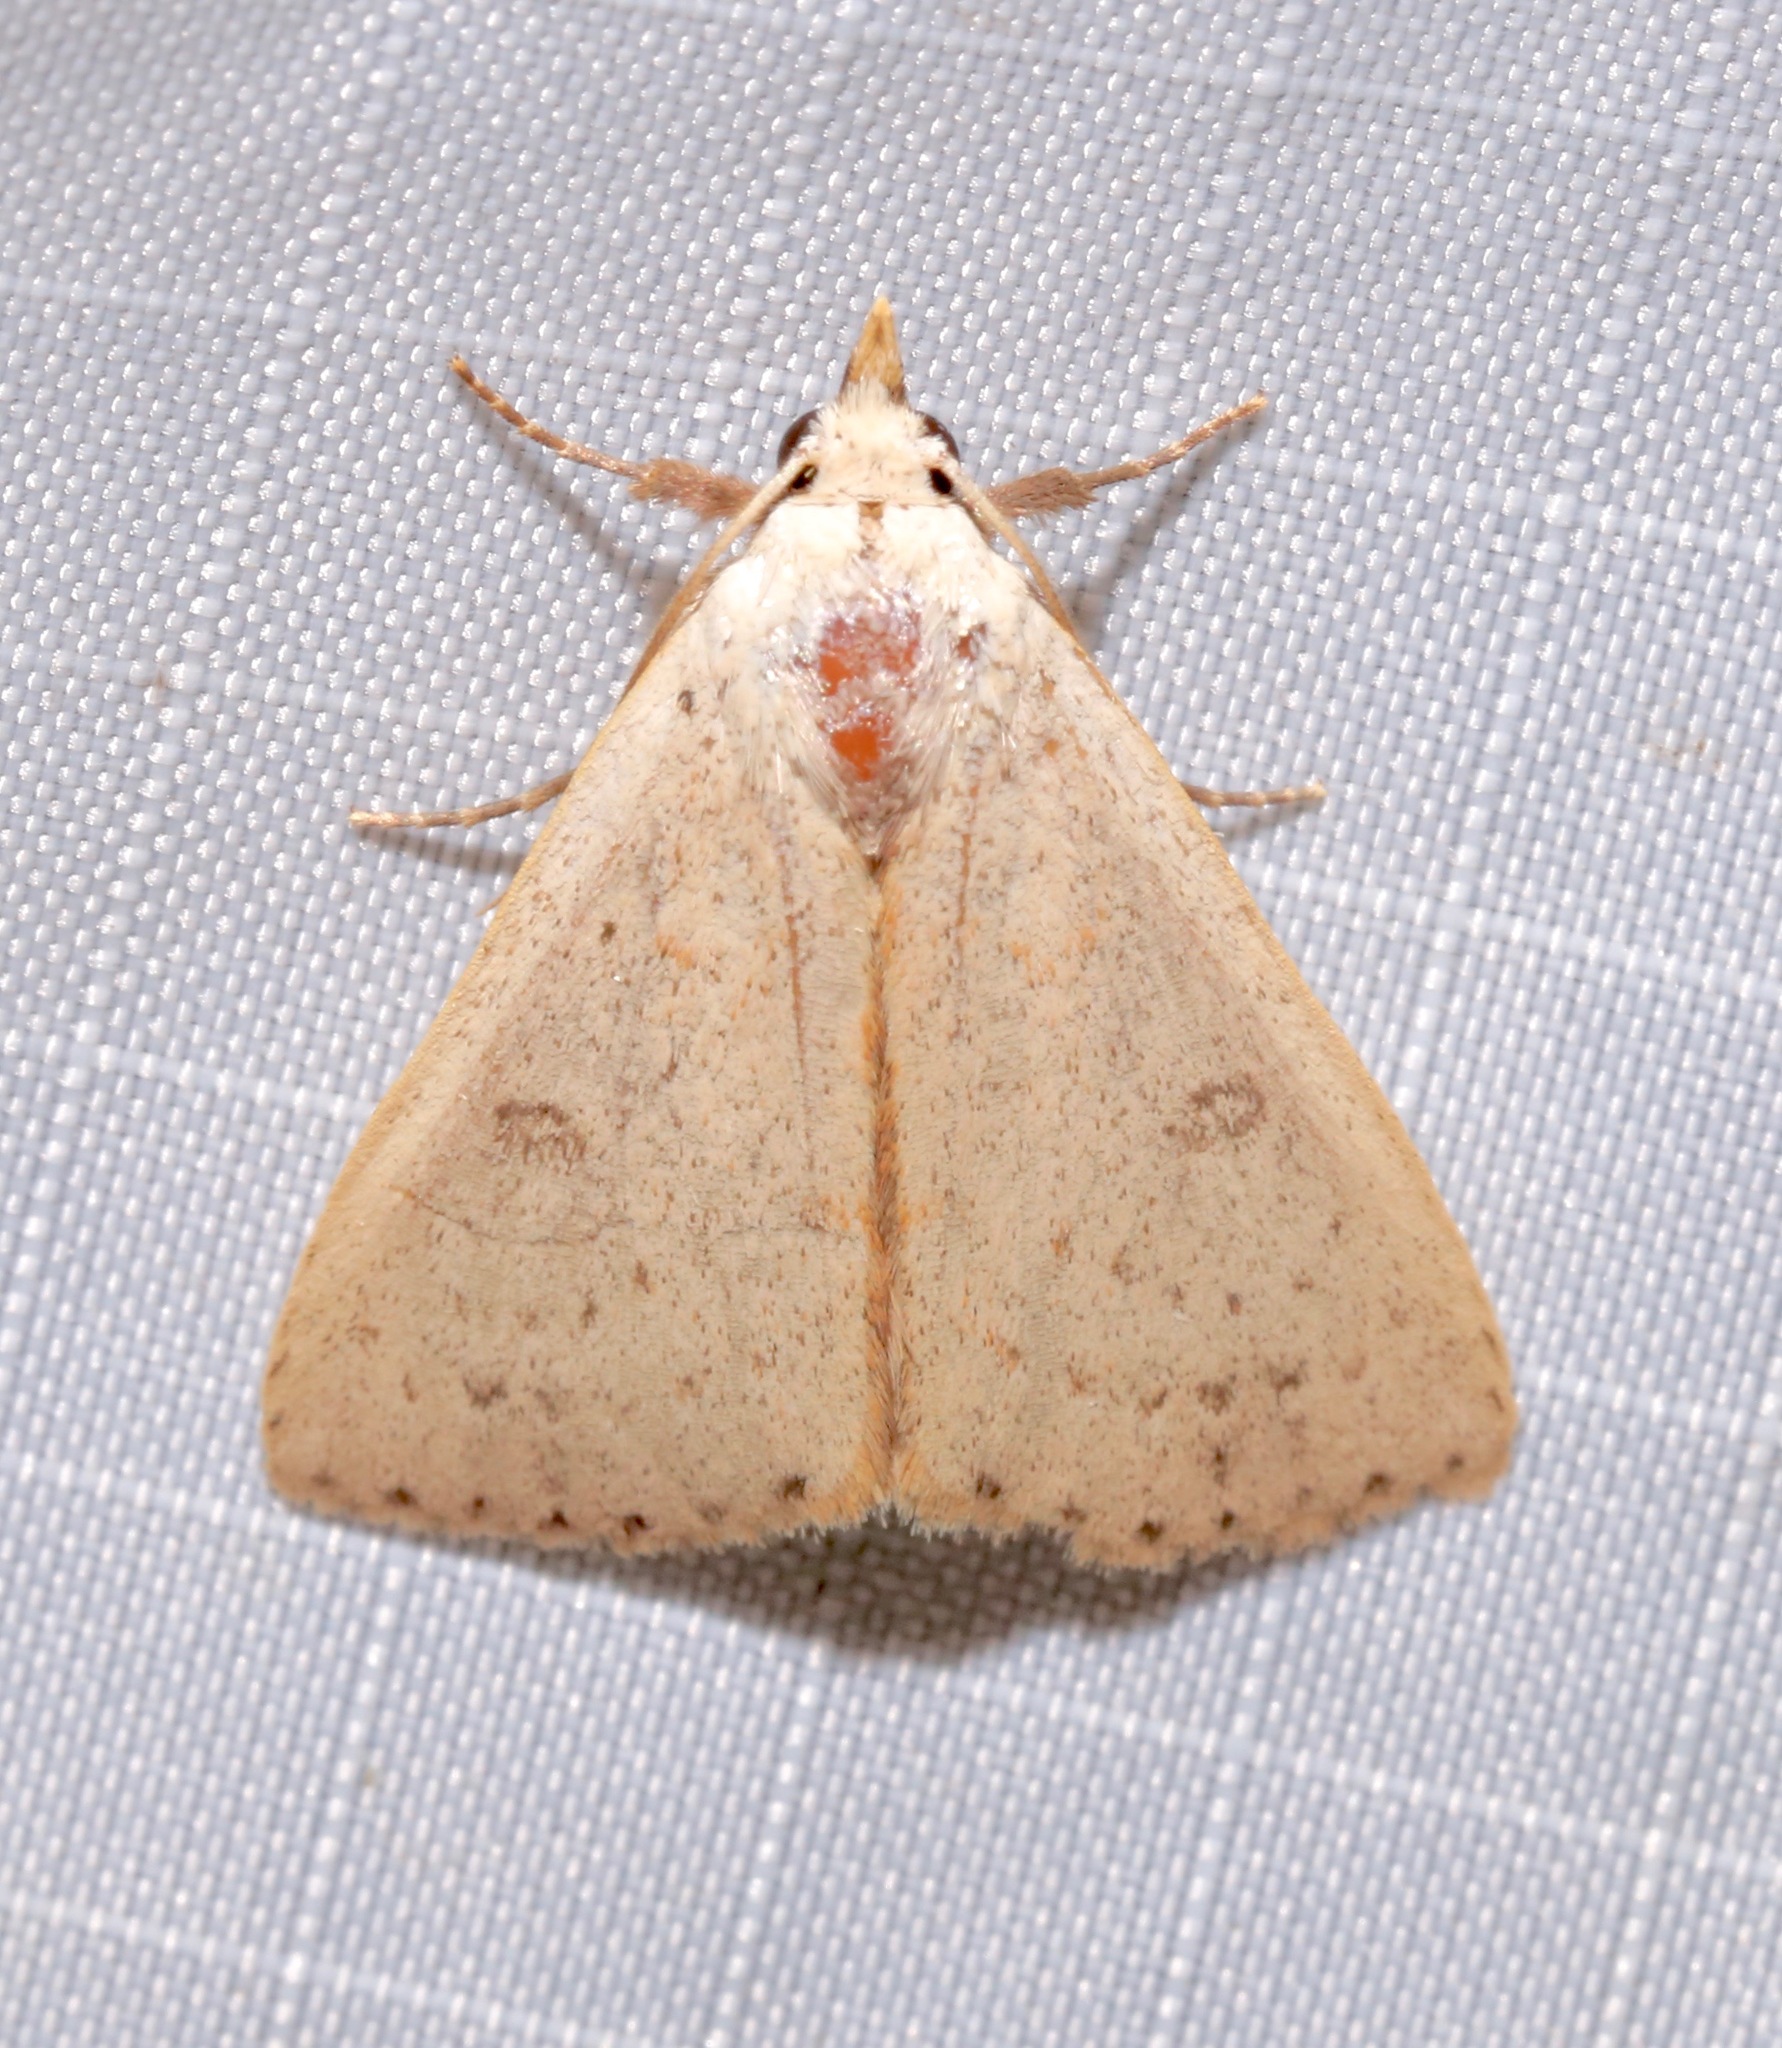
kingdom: Animalia
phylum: Arthropoda
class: Insecta
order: Lepidoptera
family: Erebidae
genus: Scolecocampa
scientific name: Scolecocampa liburna
